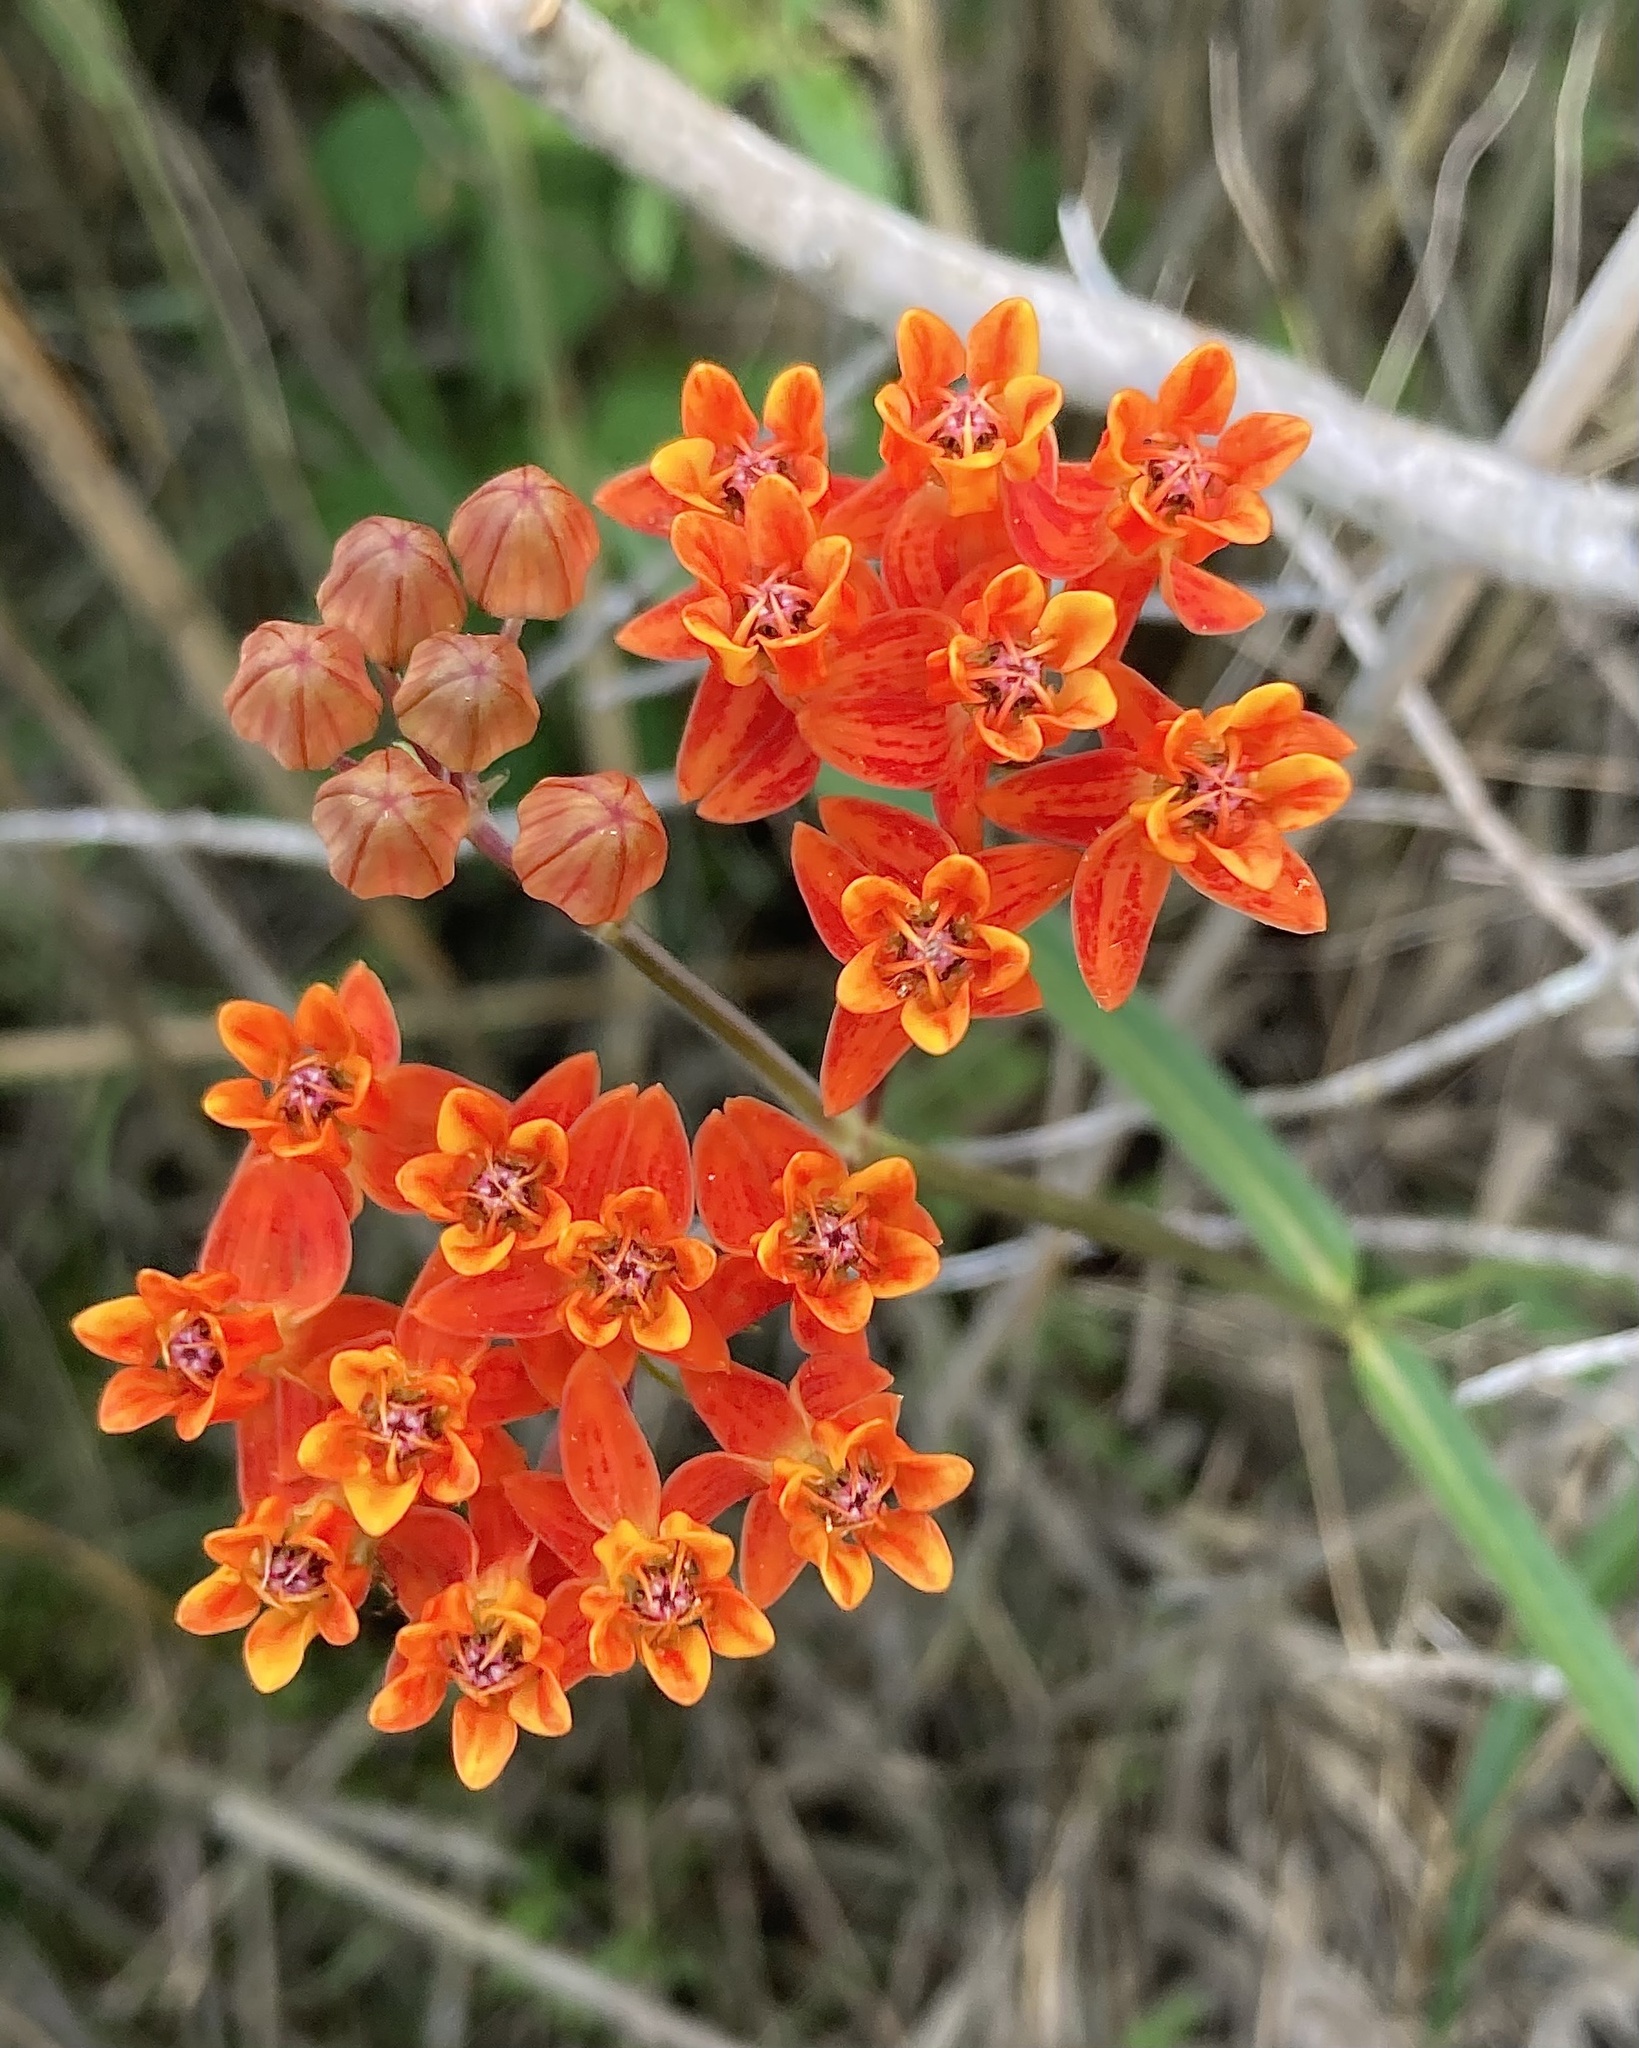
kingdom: Plantae
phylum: Tracheophyta
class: Magnoliopsida
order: Gentianales
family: Apocynaceae
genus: Asclepias
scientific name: Asclepias lanceolata
